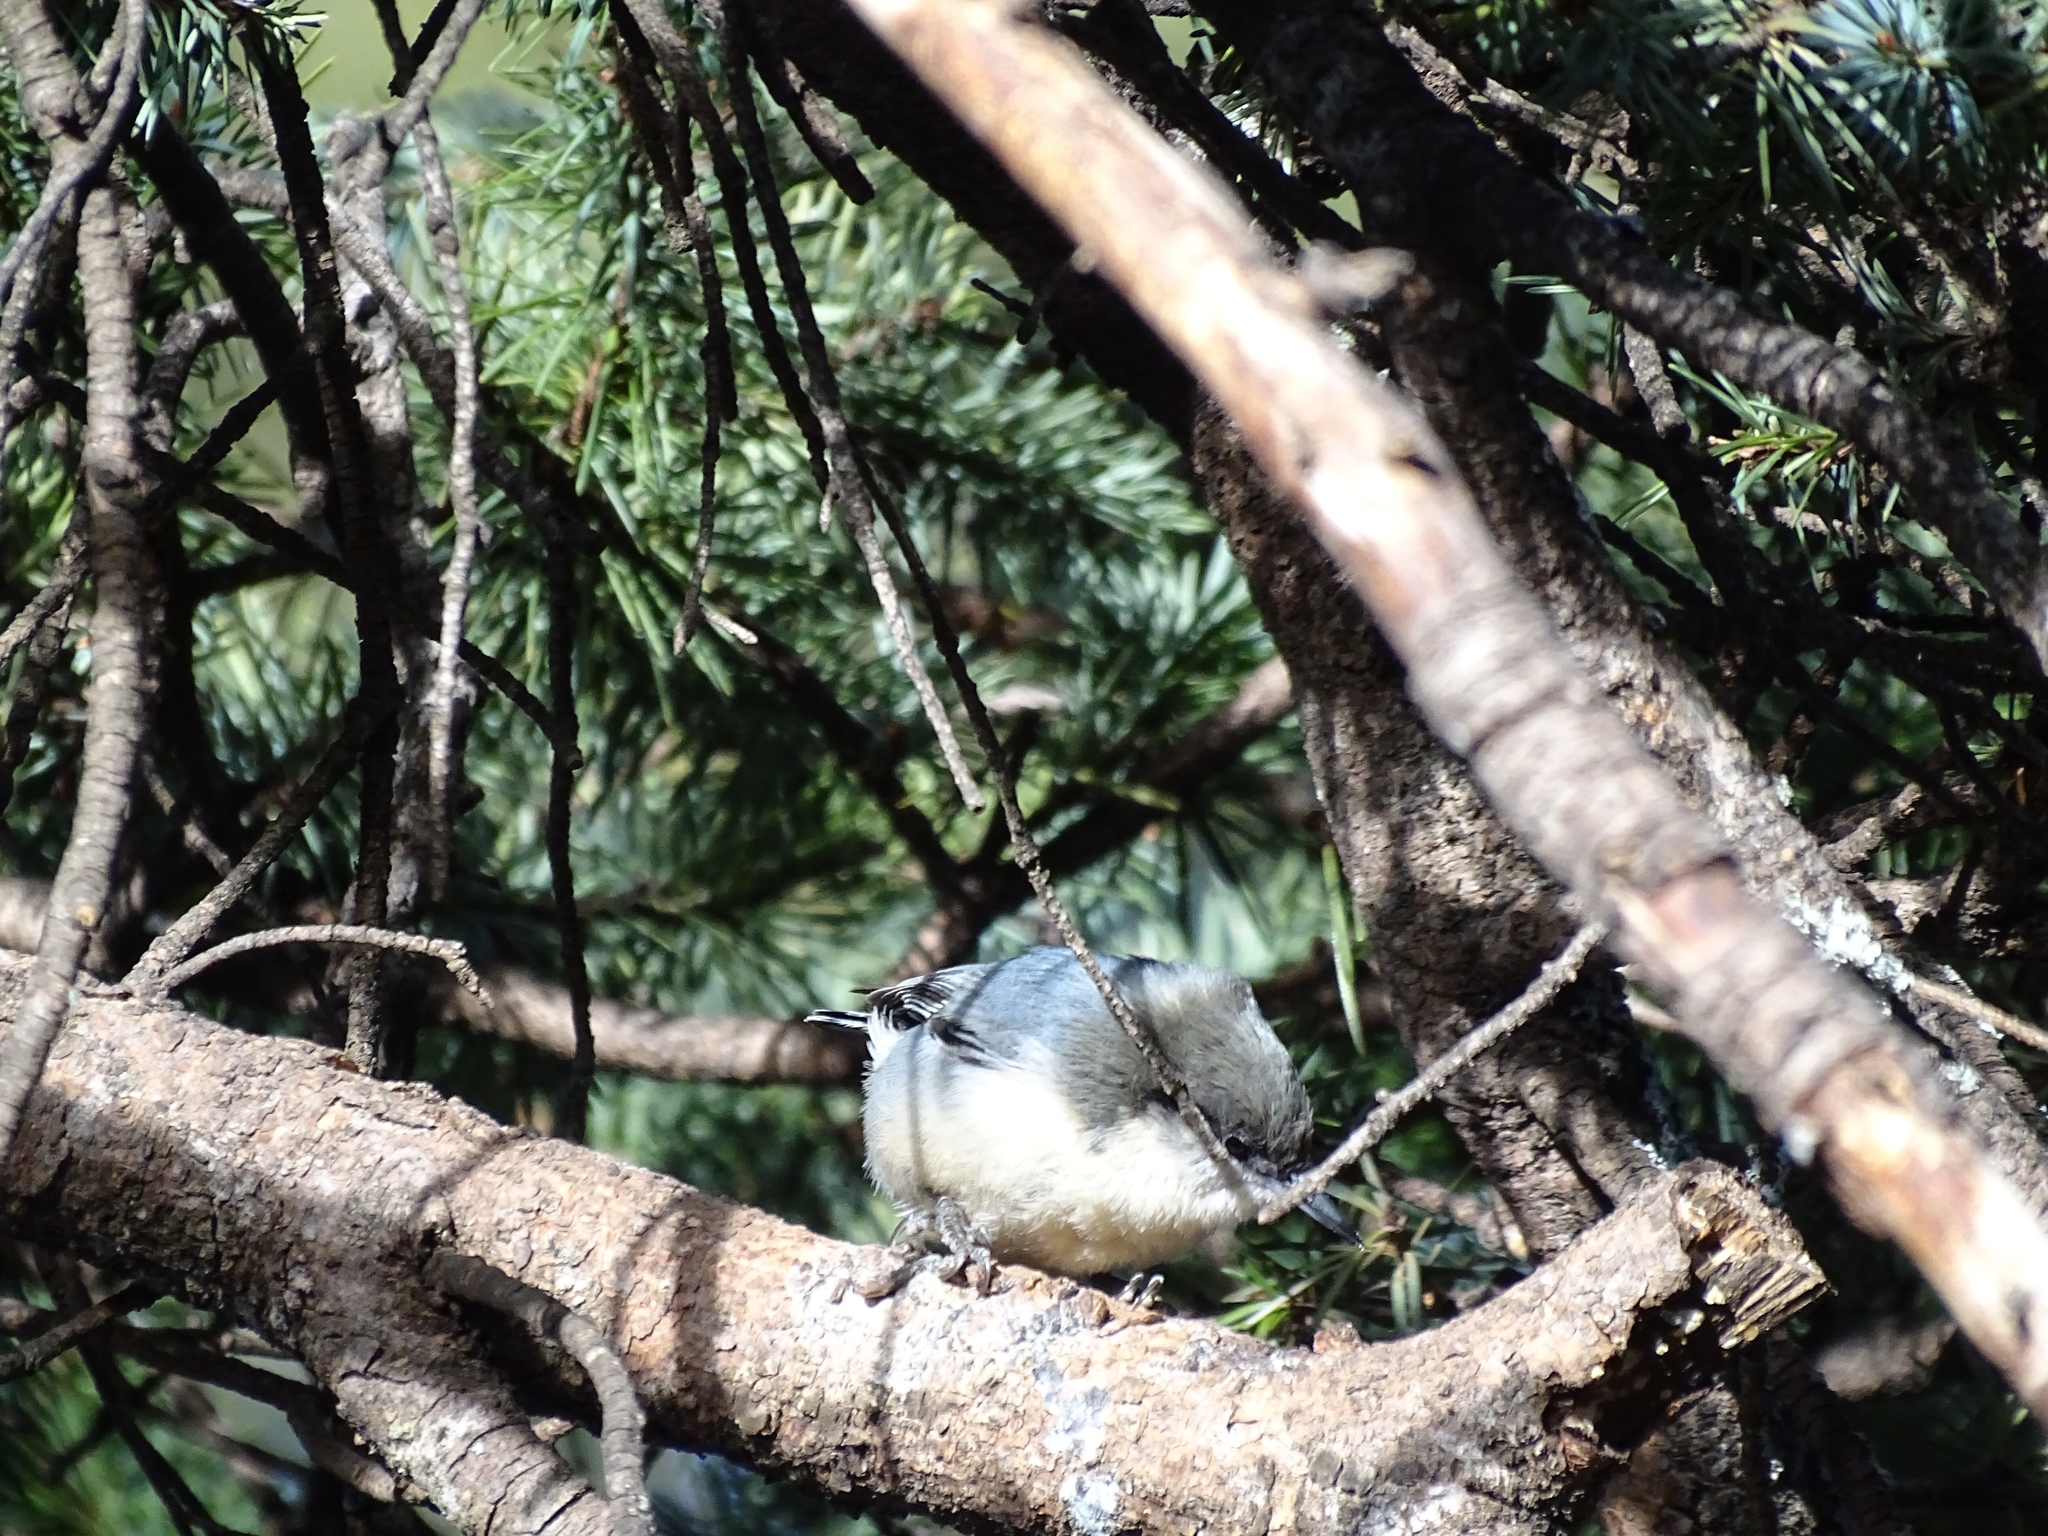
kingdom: Animalia
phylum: Chordata
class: Aves
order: Passeriformes
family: Sittidae
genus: Sitta
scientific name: Sitta pygmaea
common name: Pygmy nuthatch
